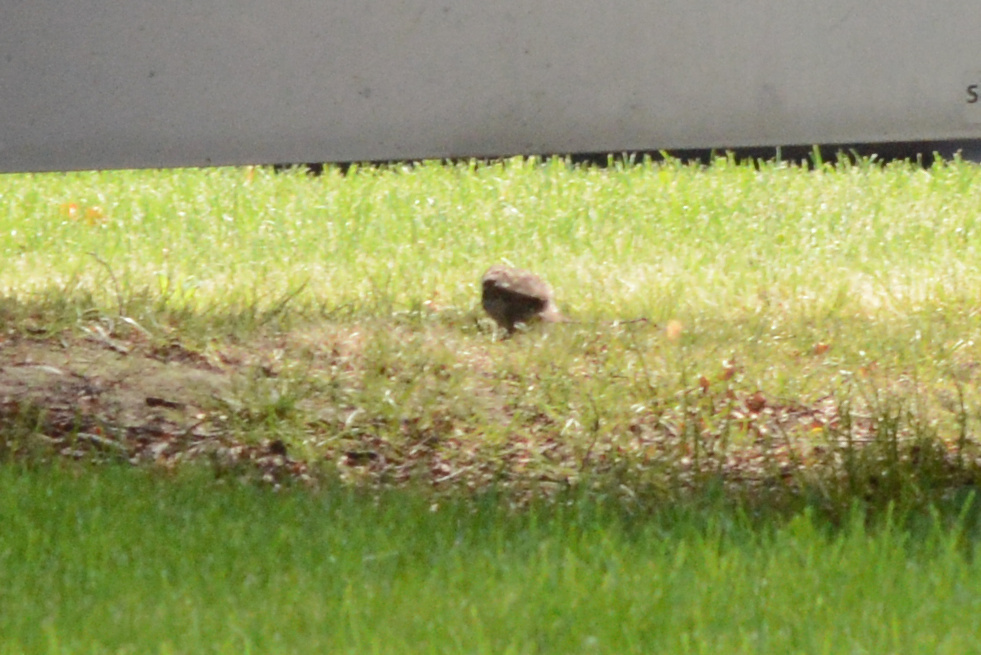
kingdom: Animalia
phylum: Chordata
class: Aves
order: Passeriformes
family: Passeridae
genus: Passer
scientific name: Passer domesticus
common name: House sparrow
